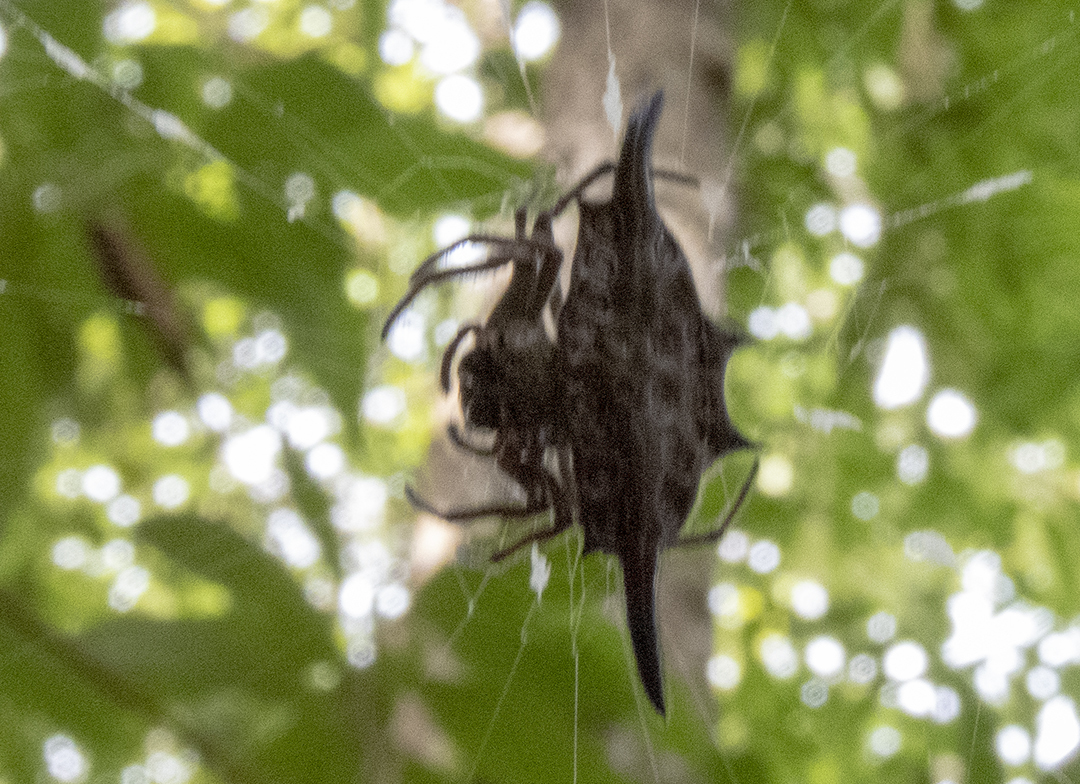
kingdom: Animalia
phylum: Arthropoda
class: Arachnida
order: Araneae
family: Araneidae
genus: Gasteracantha
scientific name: Gasteracantha diardi
